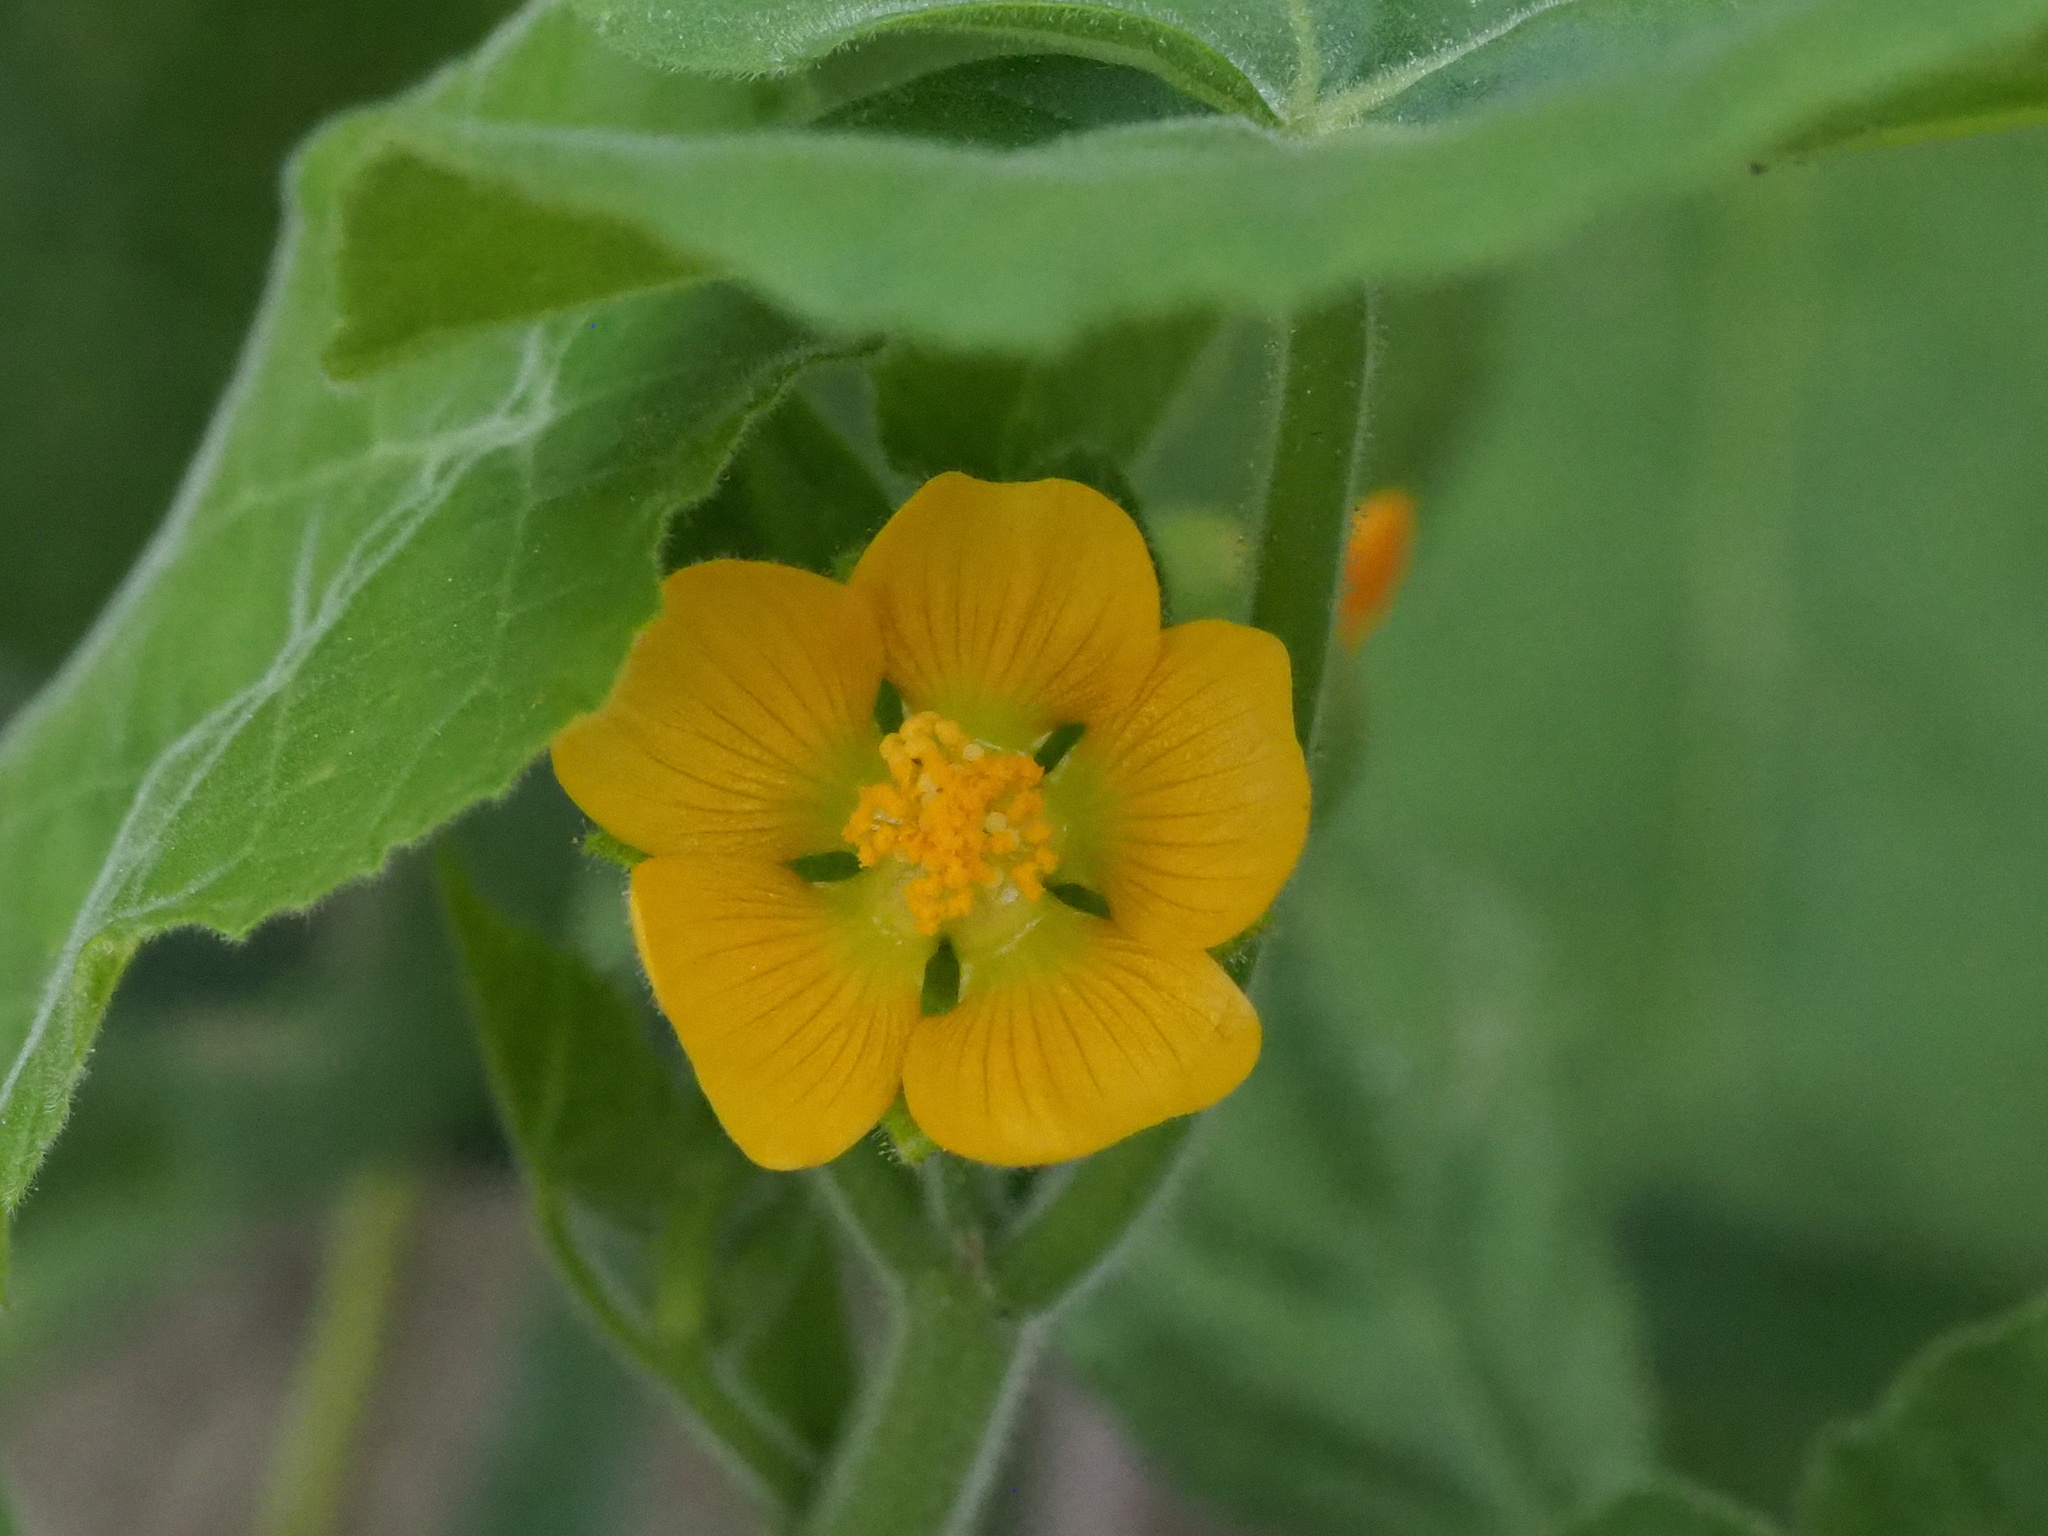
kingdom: Plantae
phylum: Tracheophyta
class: Magnoliopsida
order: Malvales
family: Malvaceae
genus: Abutilon
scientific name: Abutilon theophrasti
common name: Velvetleaf
